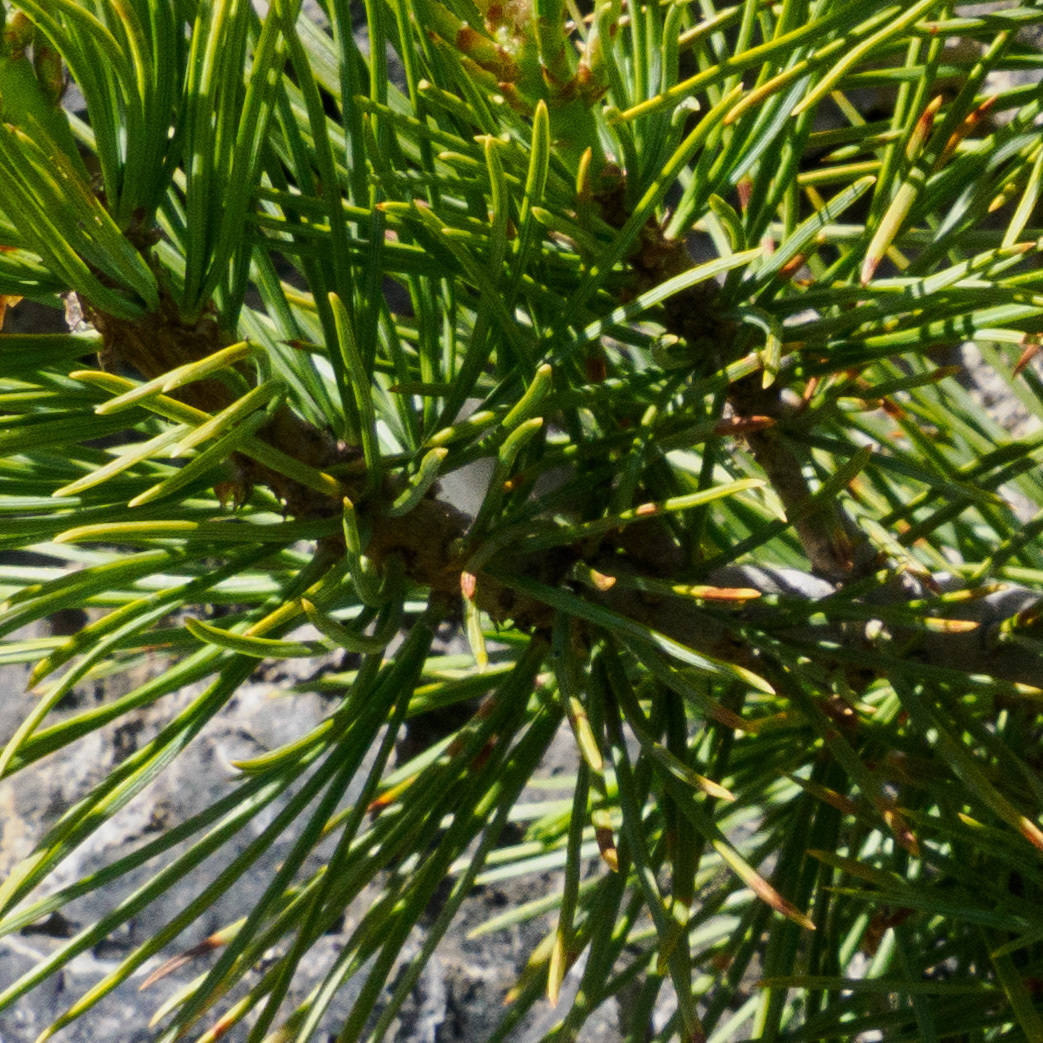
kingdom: Plantae
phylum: Tracheophyta
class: Pinopsida
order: Pinales
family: Pinaceae
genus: Pinus
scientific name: Pinus flexilis
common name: Limber pine
